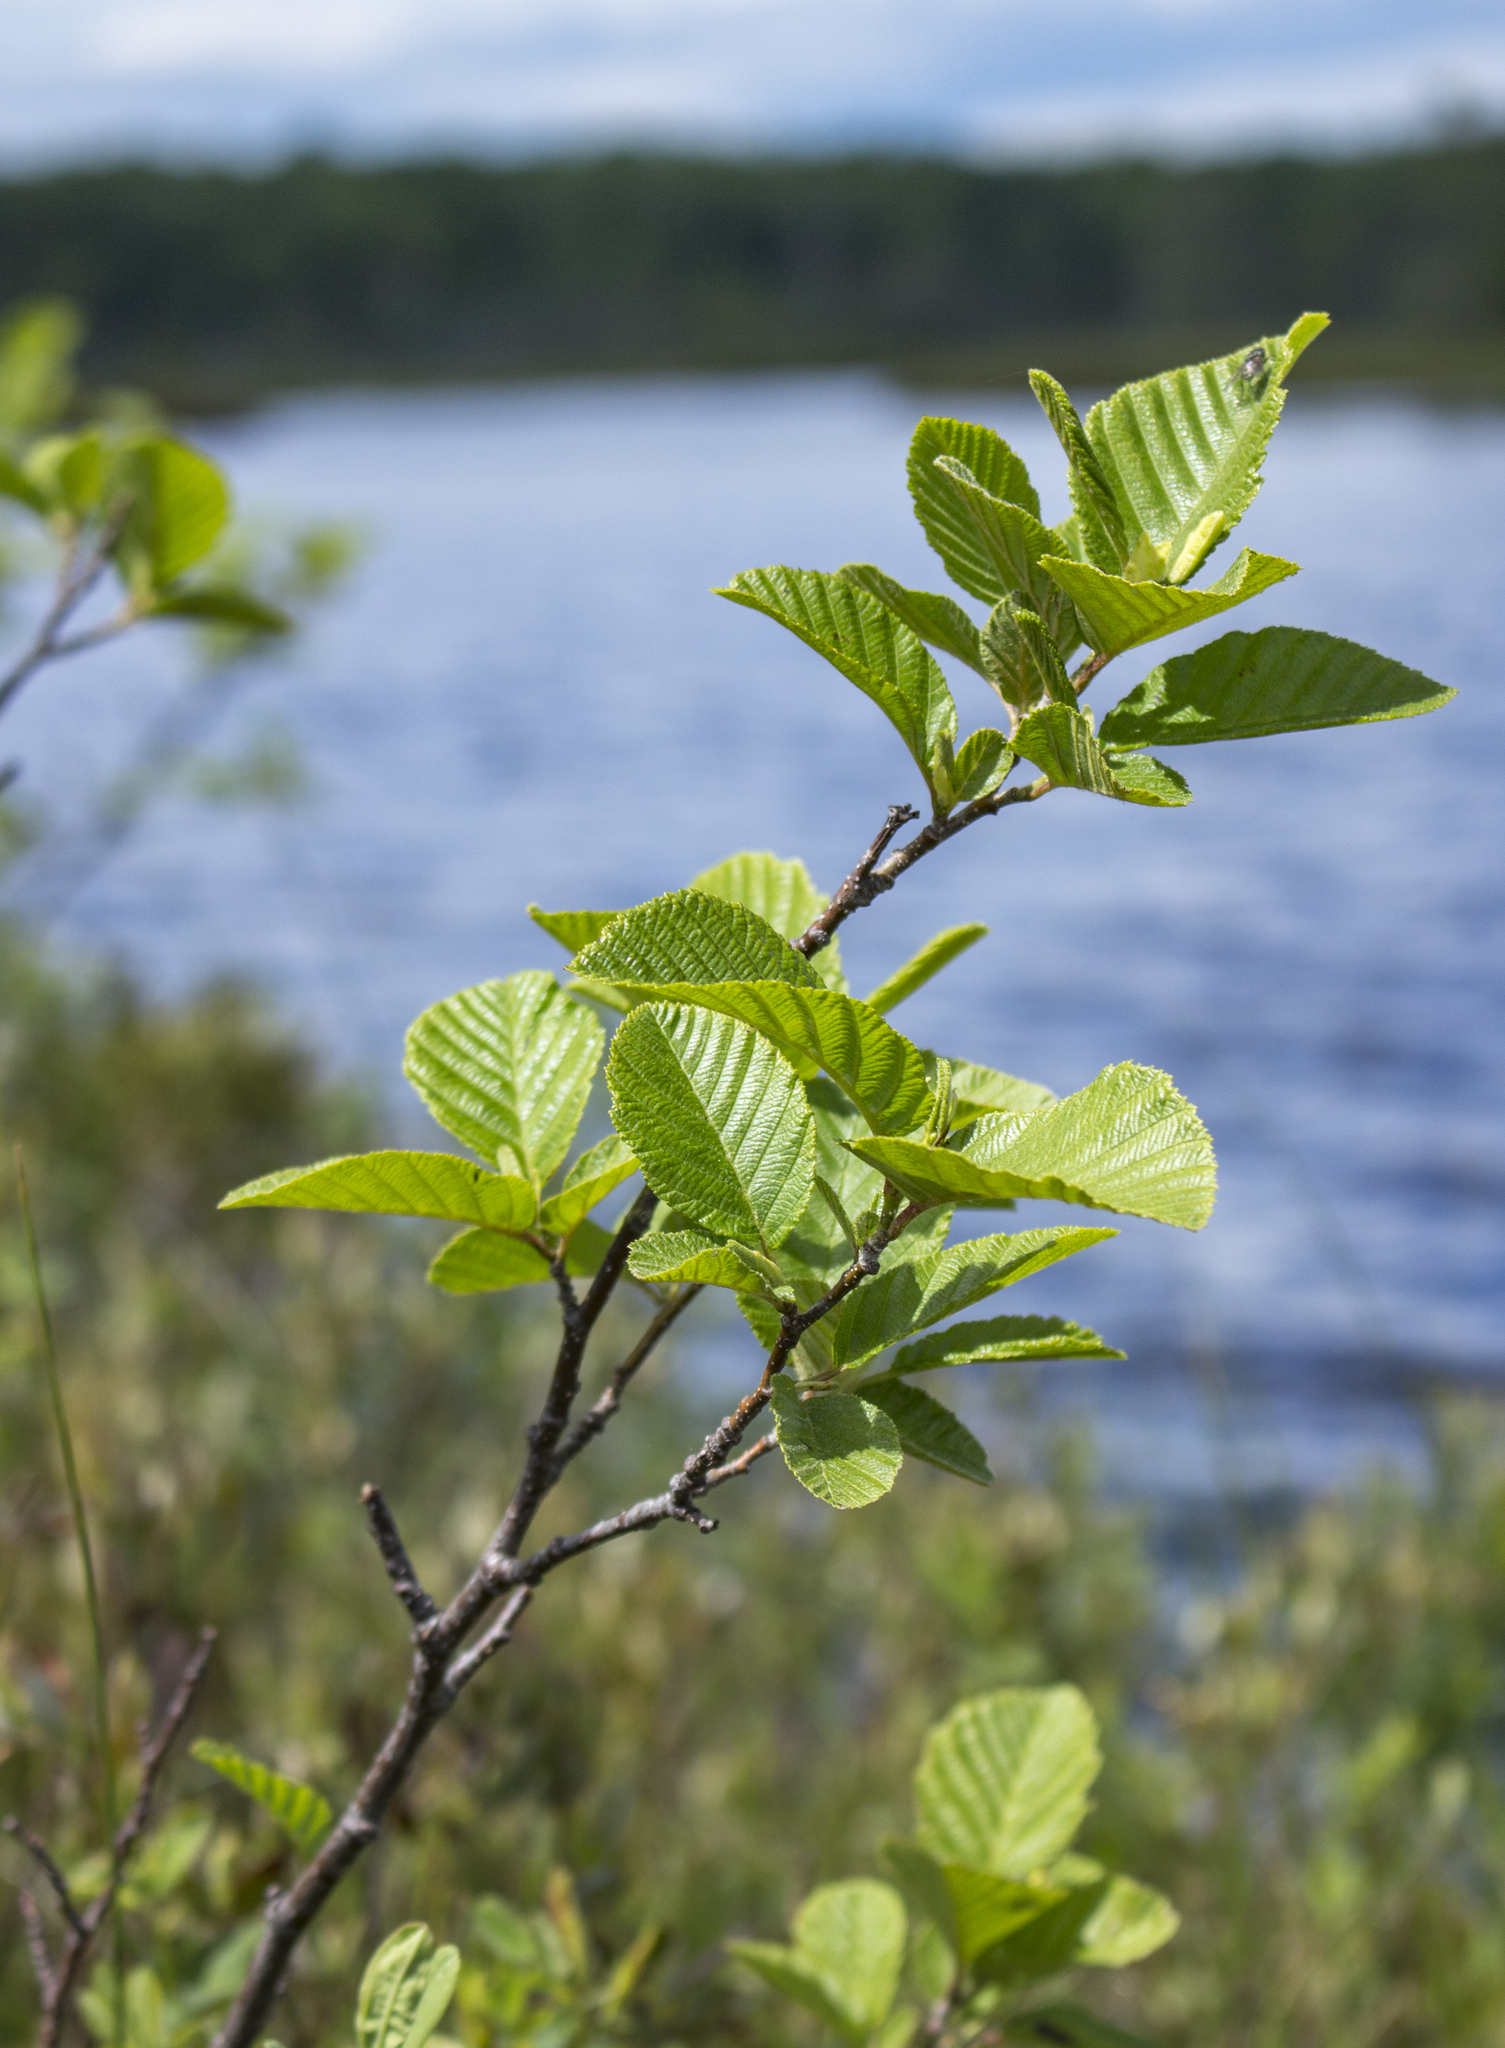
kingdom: Plantae
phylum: Tracheophyta
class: Magnoliopsida
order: Fagales
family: Betulaceae
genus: Alnus
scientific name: Alnus alnobetula
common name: Green alder
